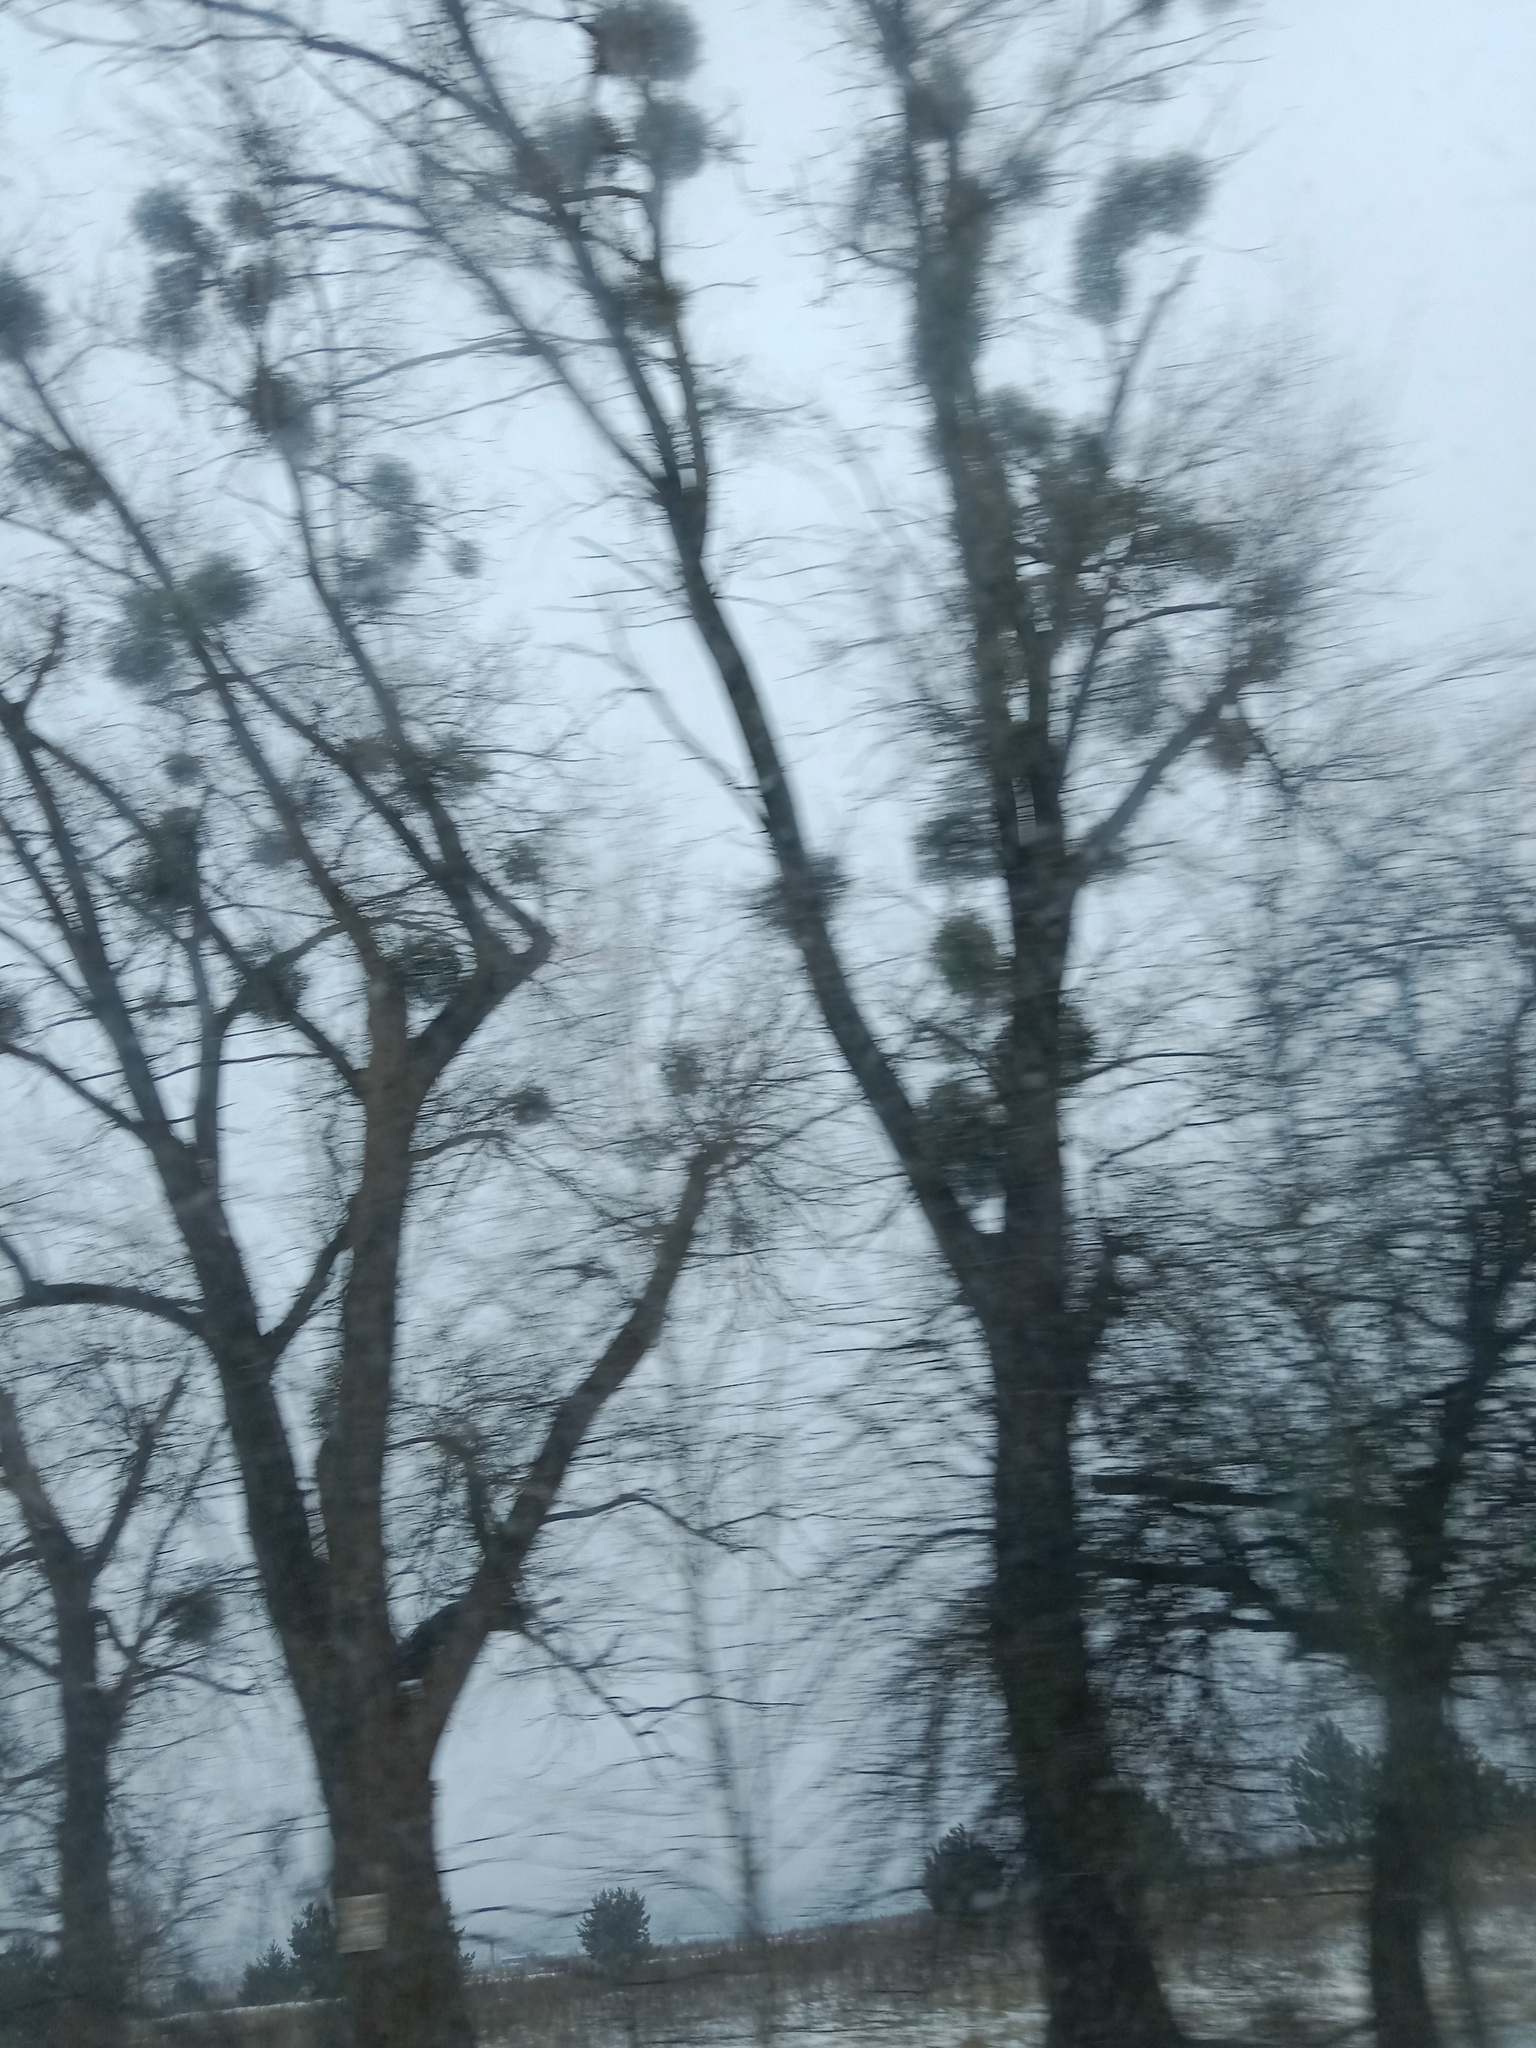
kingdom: Plantae
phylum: Tracheophyta
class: Magnoliopsida
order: Santalales
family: Viscaceae
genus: Viscum
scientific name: Viscum album
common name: Mistletoe
